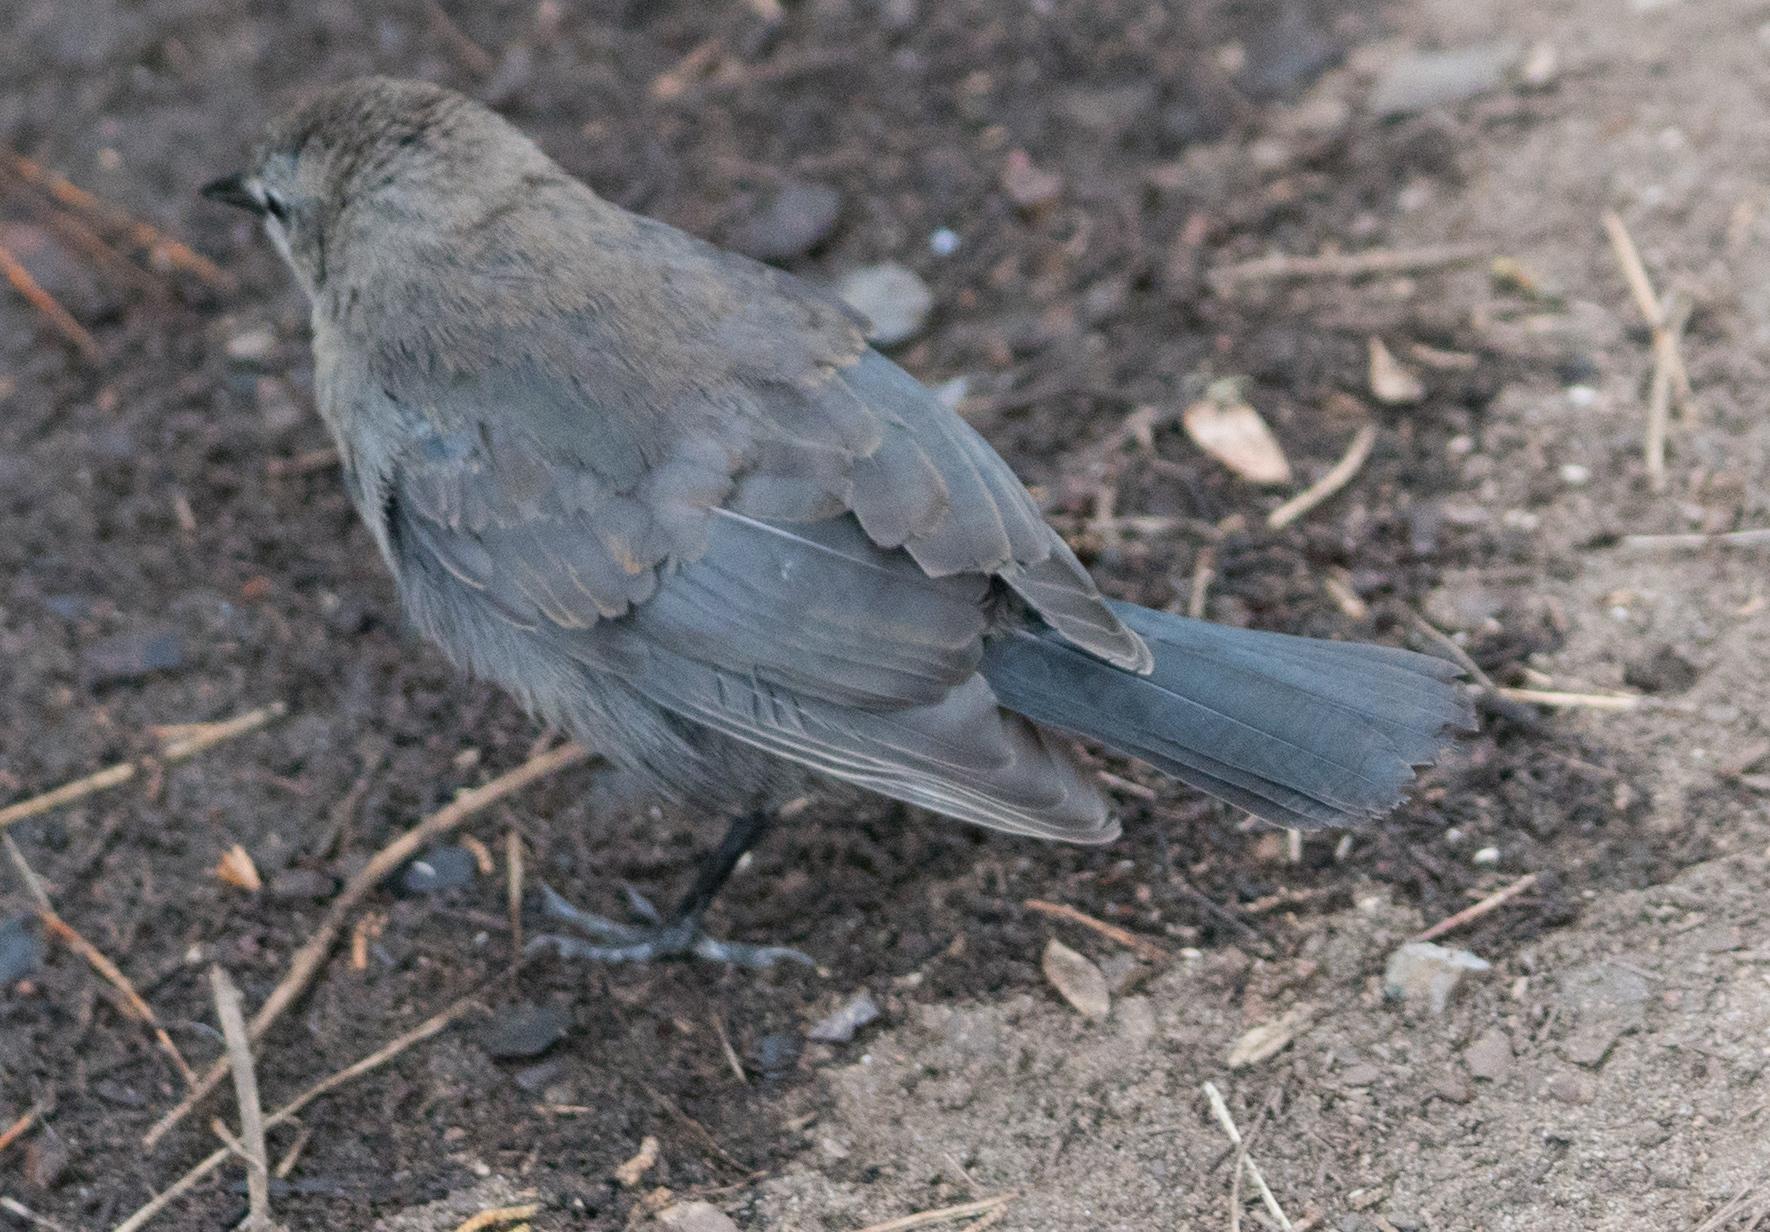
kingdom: Animalia
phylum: Chordata
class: Aves
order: Passeriformes
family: Icteridae
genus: Euphagus
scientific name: Euphagus cyanocephalus
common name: Brewer's blackbird
